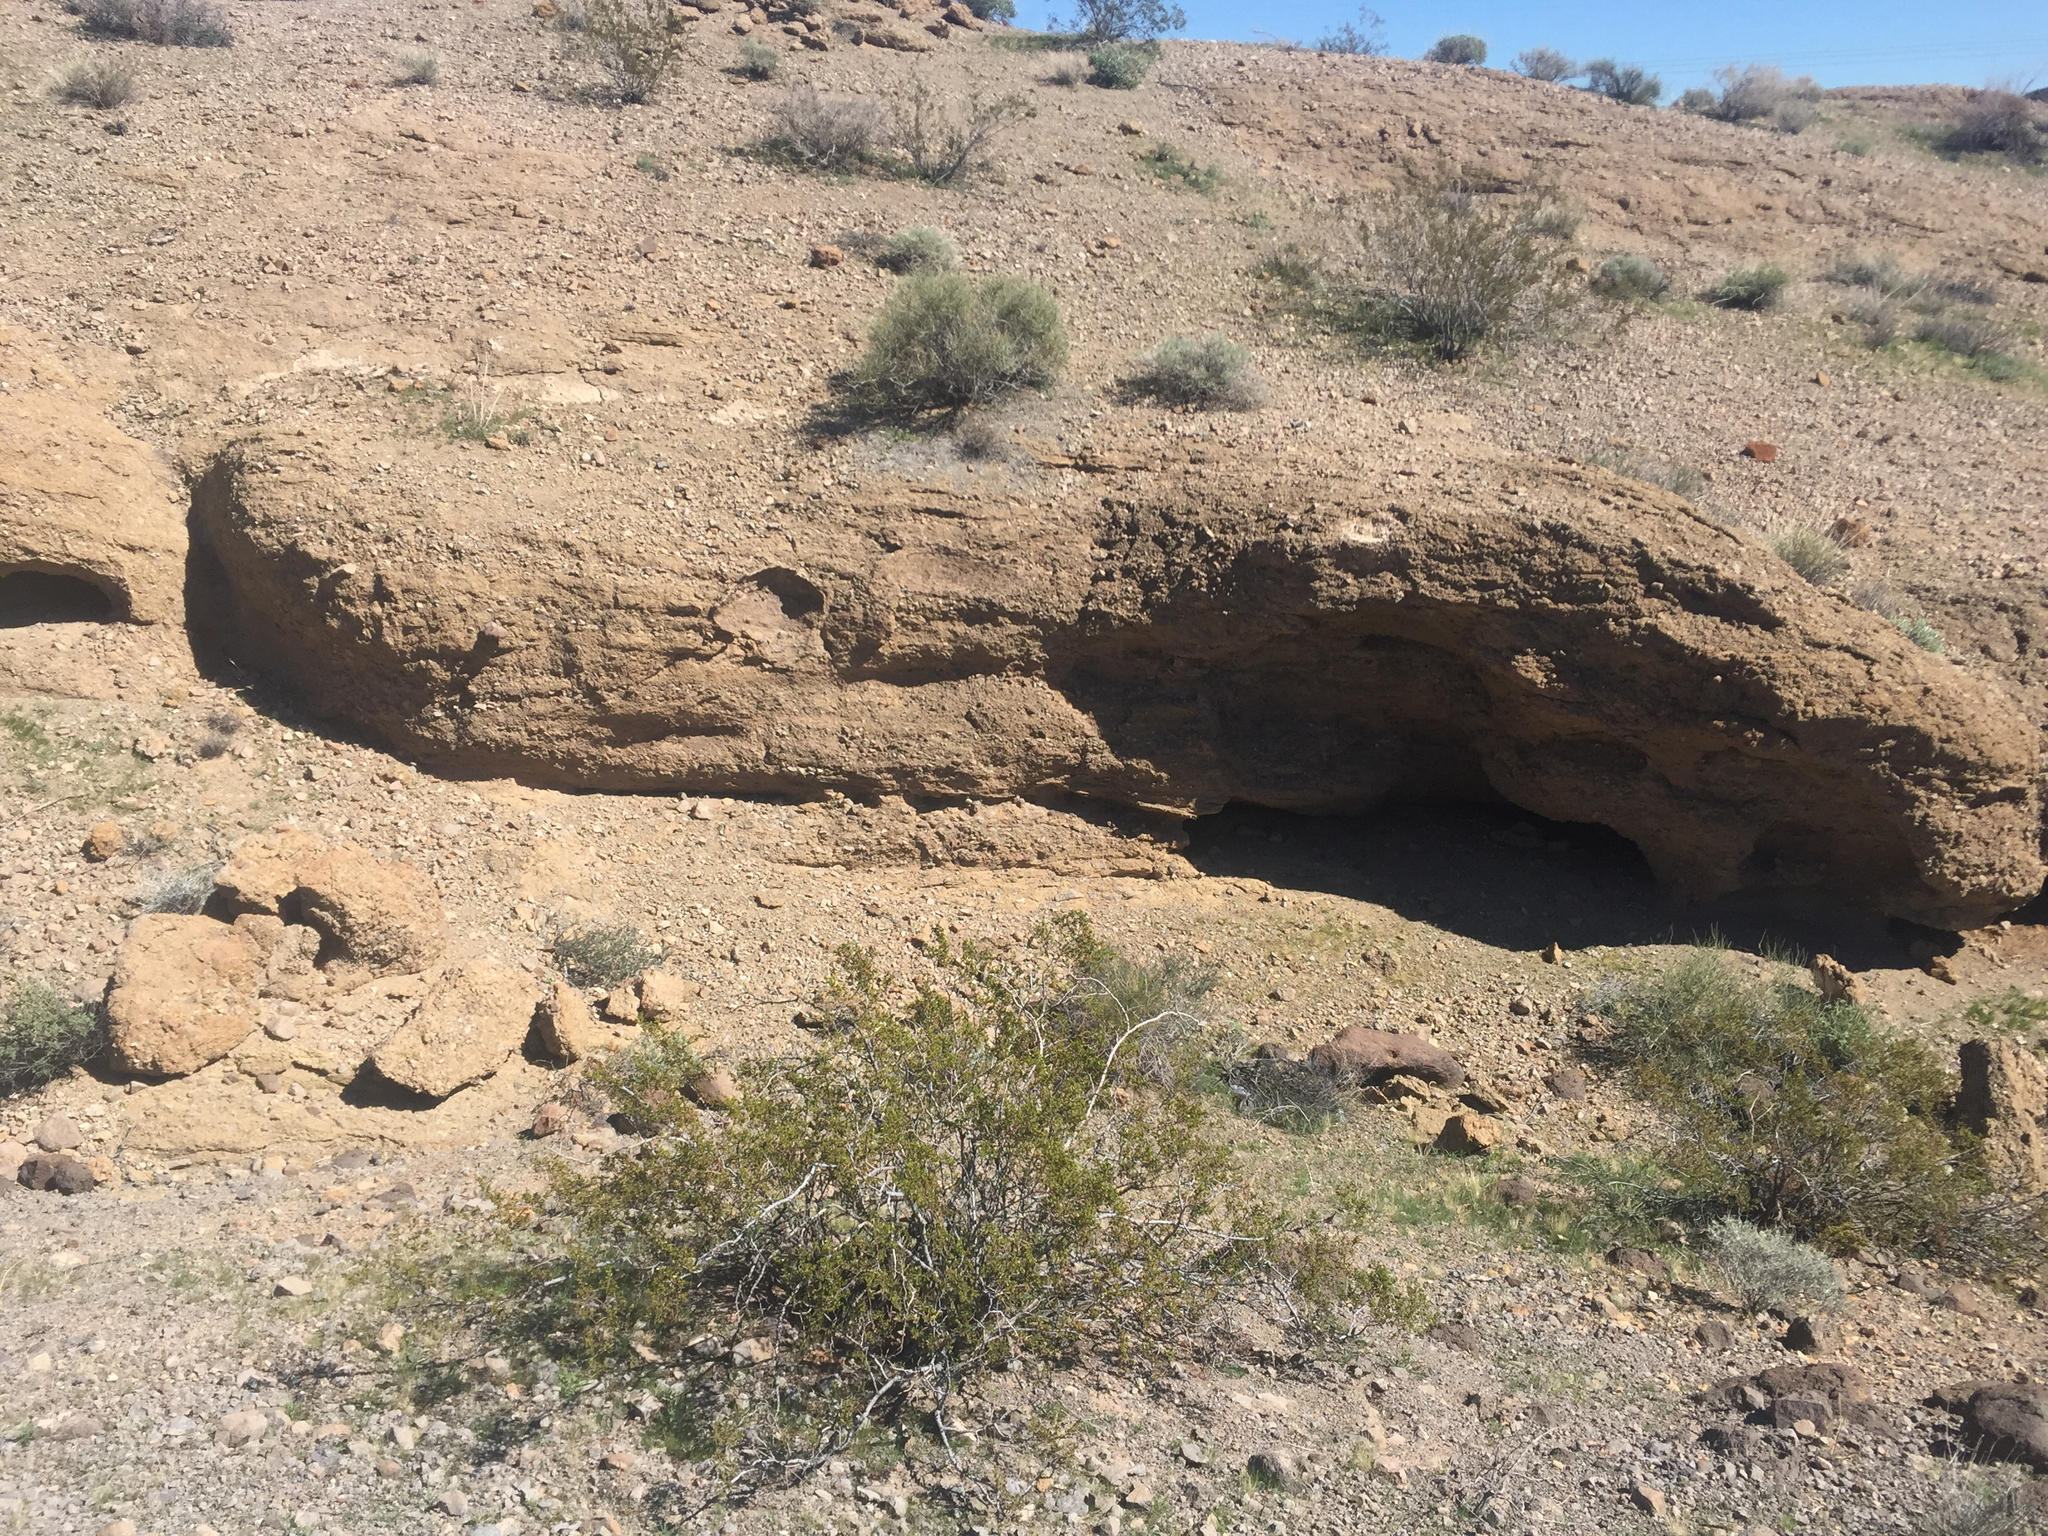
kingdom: Plantae
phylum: Tracheophyta
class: Magnoliopsida
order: Zygophyllales
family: Zygophyllaceae
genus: Larrea
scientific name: Larrea tridentata
